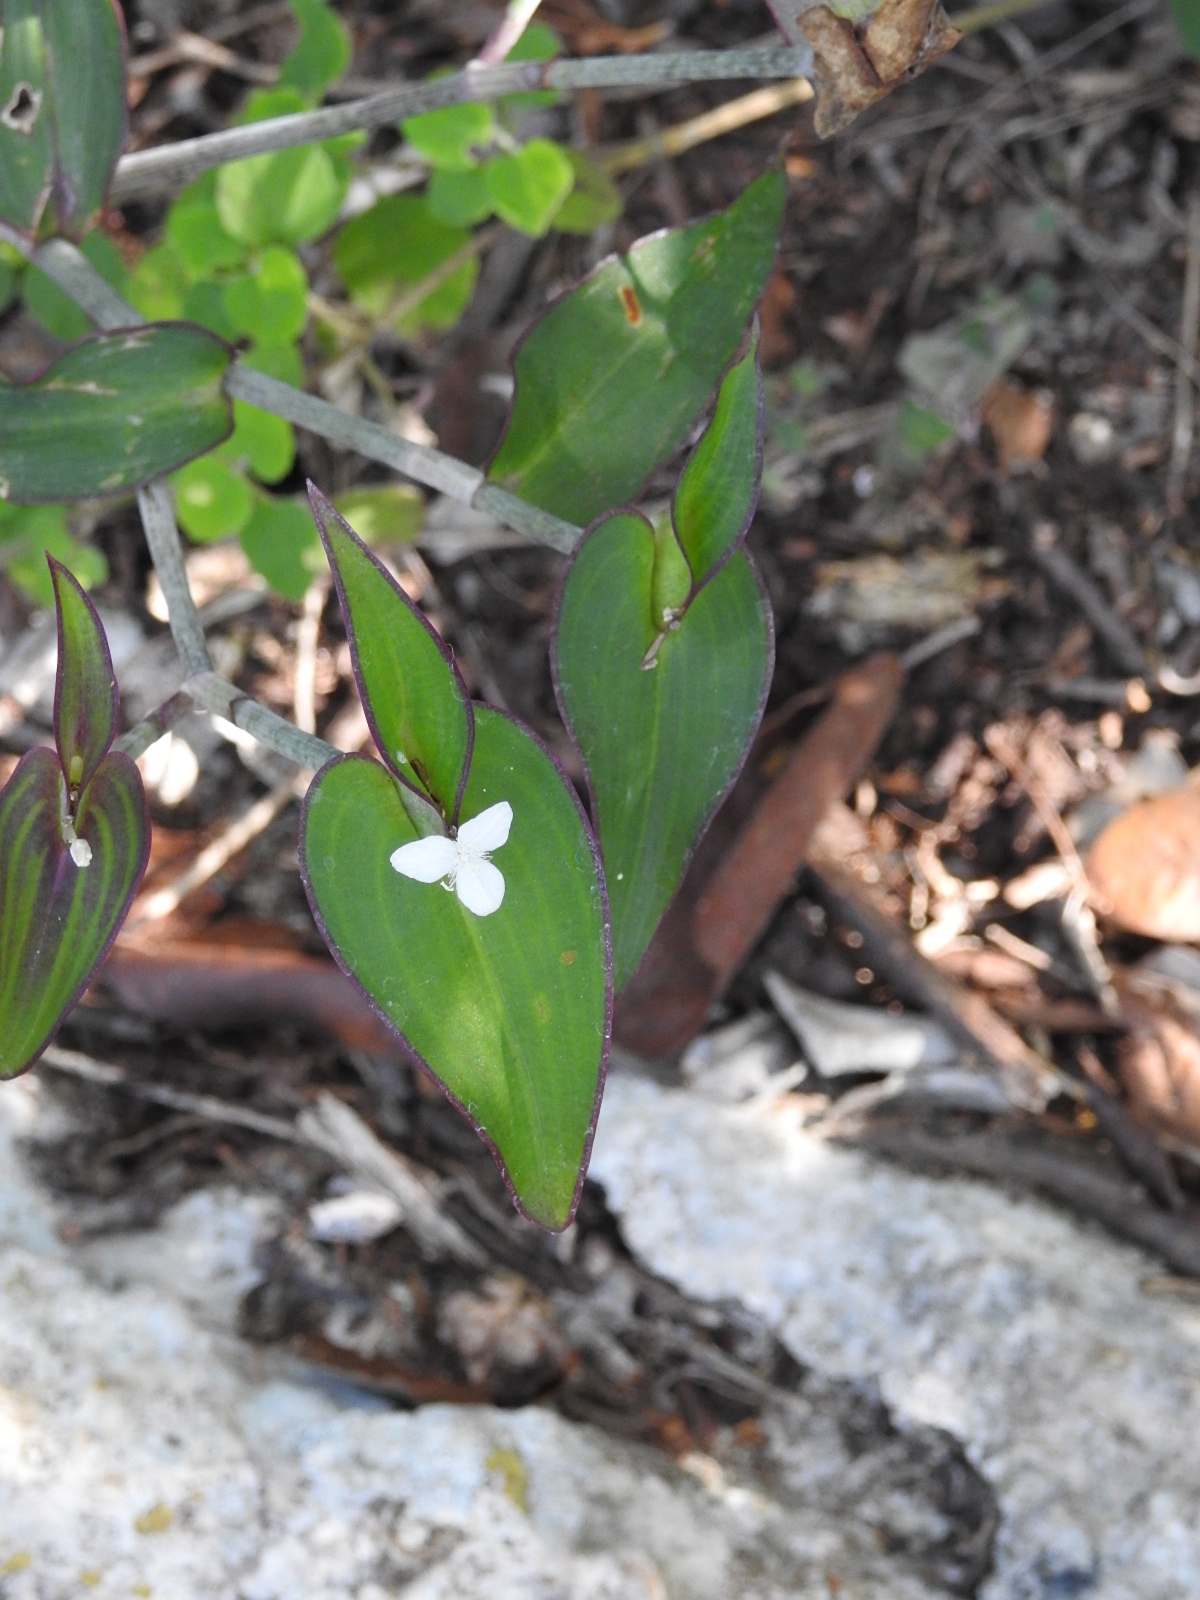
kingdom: Plantae
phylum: Tracheophyta
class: Liliopsida
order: Commelinales
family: Commelinaceae
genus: Tradescantia
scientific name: Tradescantia schippii
